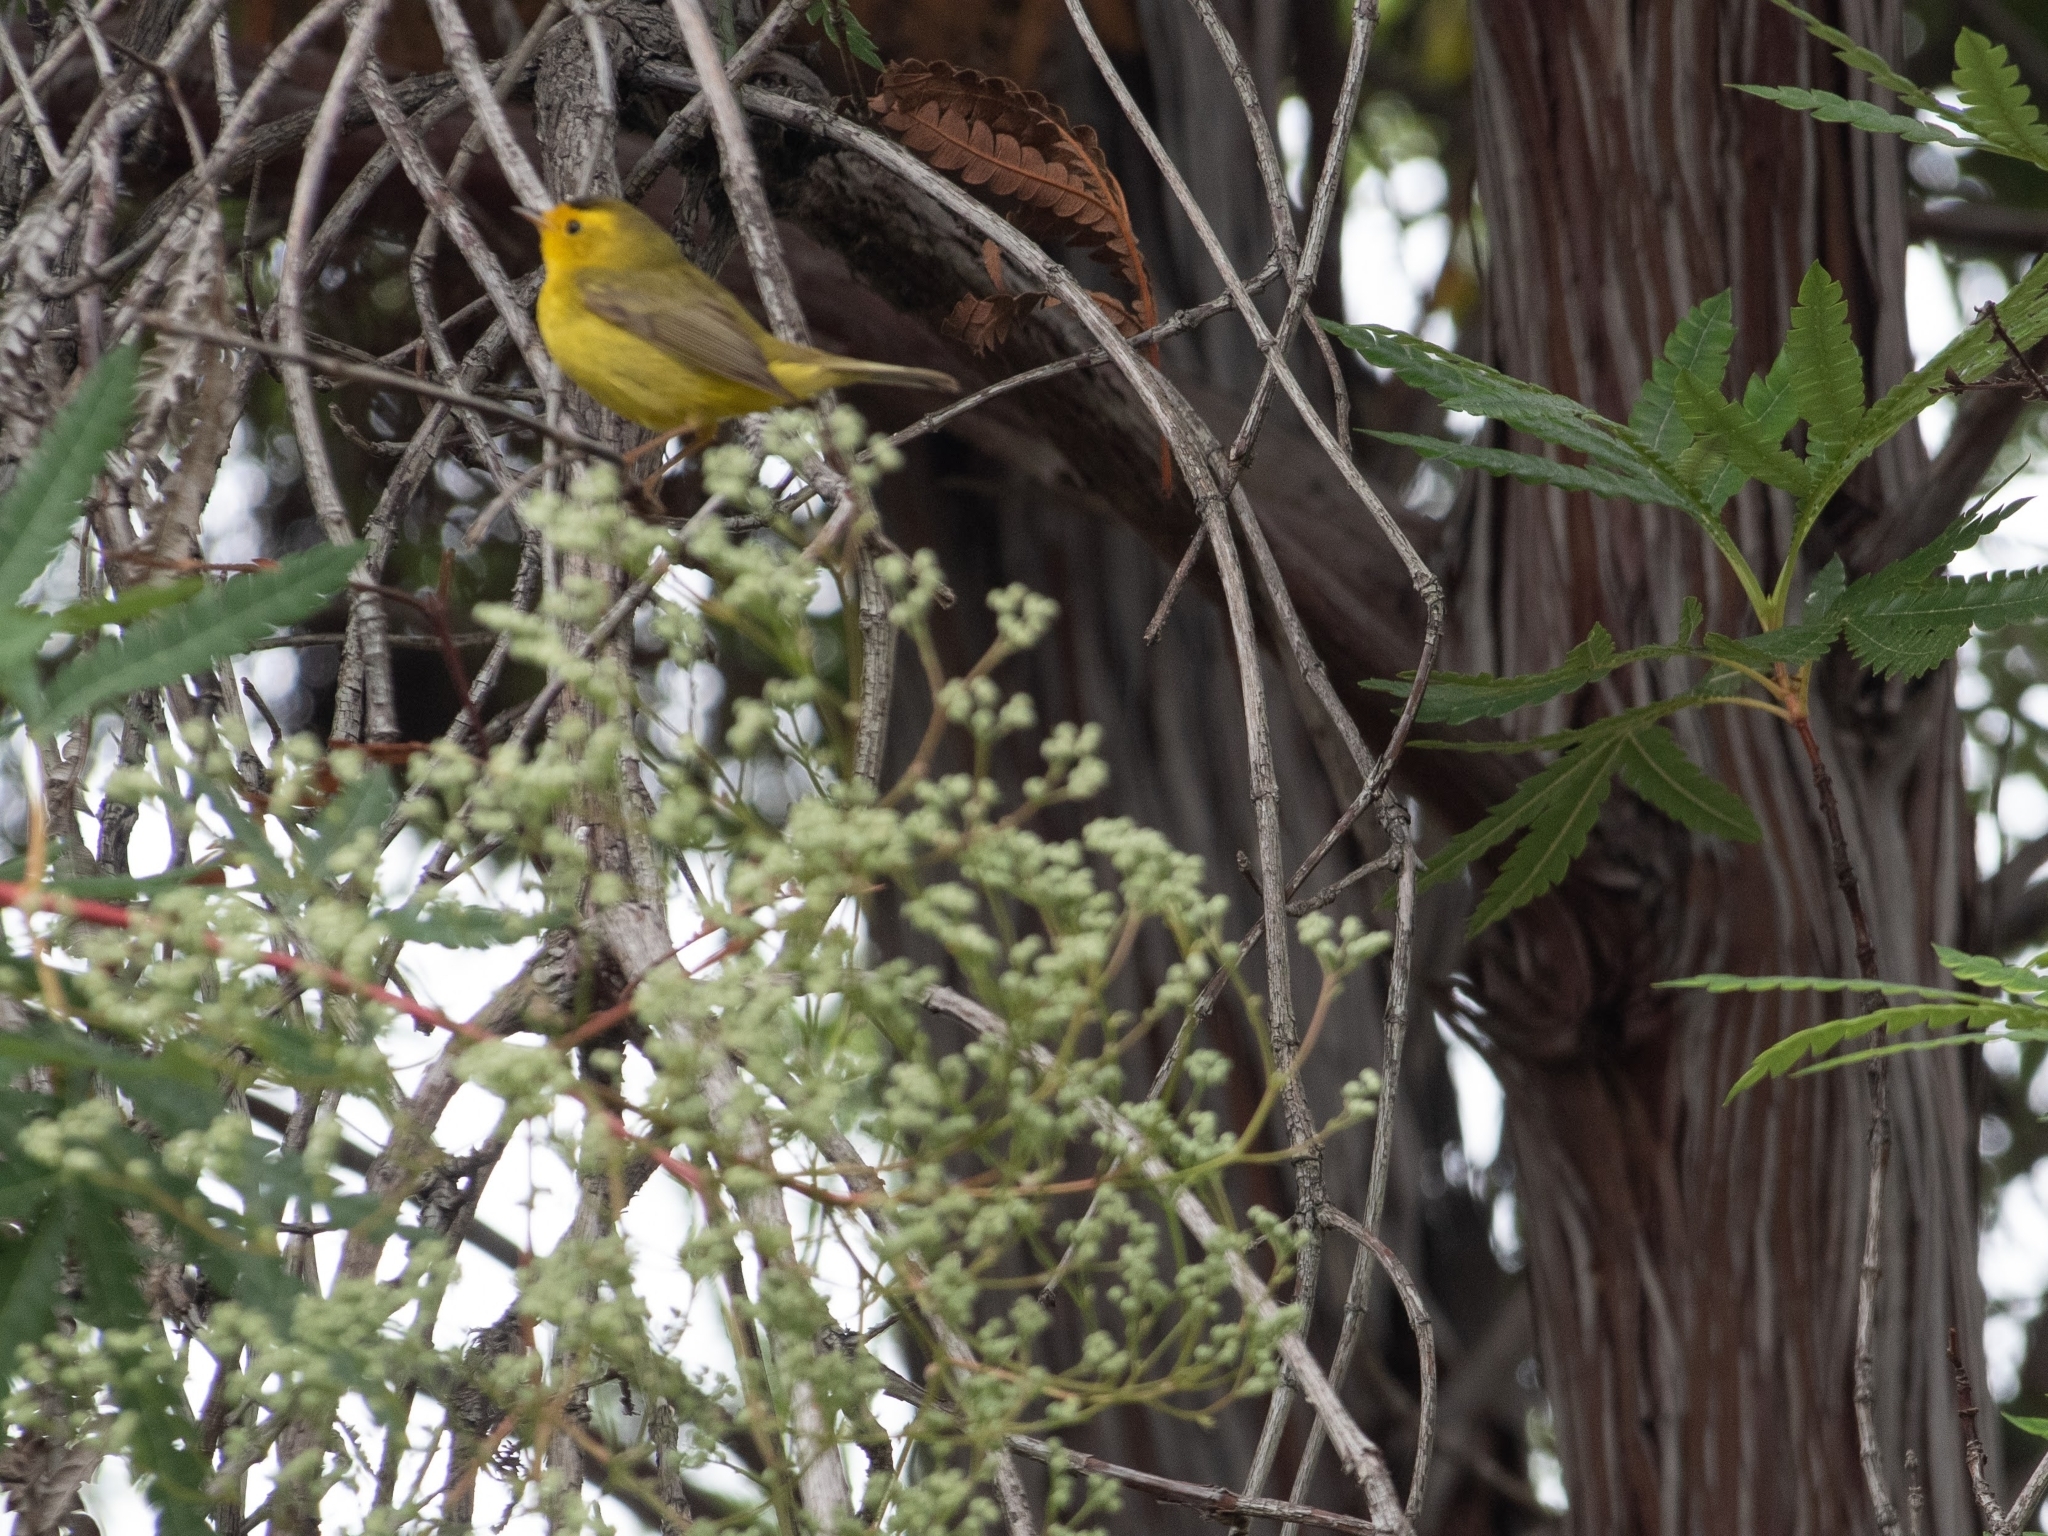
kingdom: Animalia
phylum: Chordata
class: Aves
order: Passeriformes
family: Parulidae
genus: Cardellina
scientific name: Cardellina pusilla
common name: Wilson's warbler
